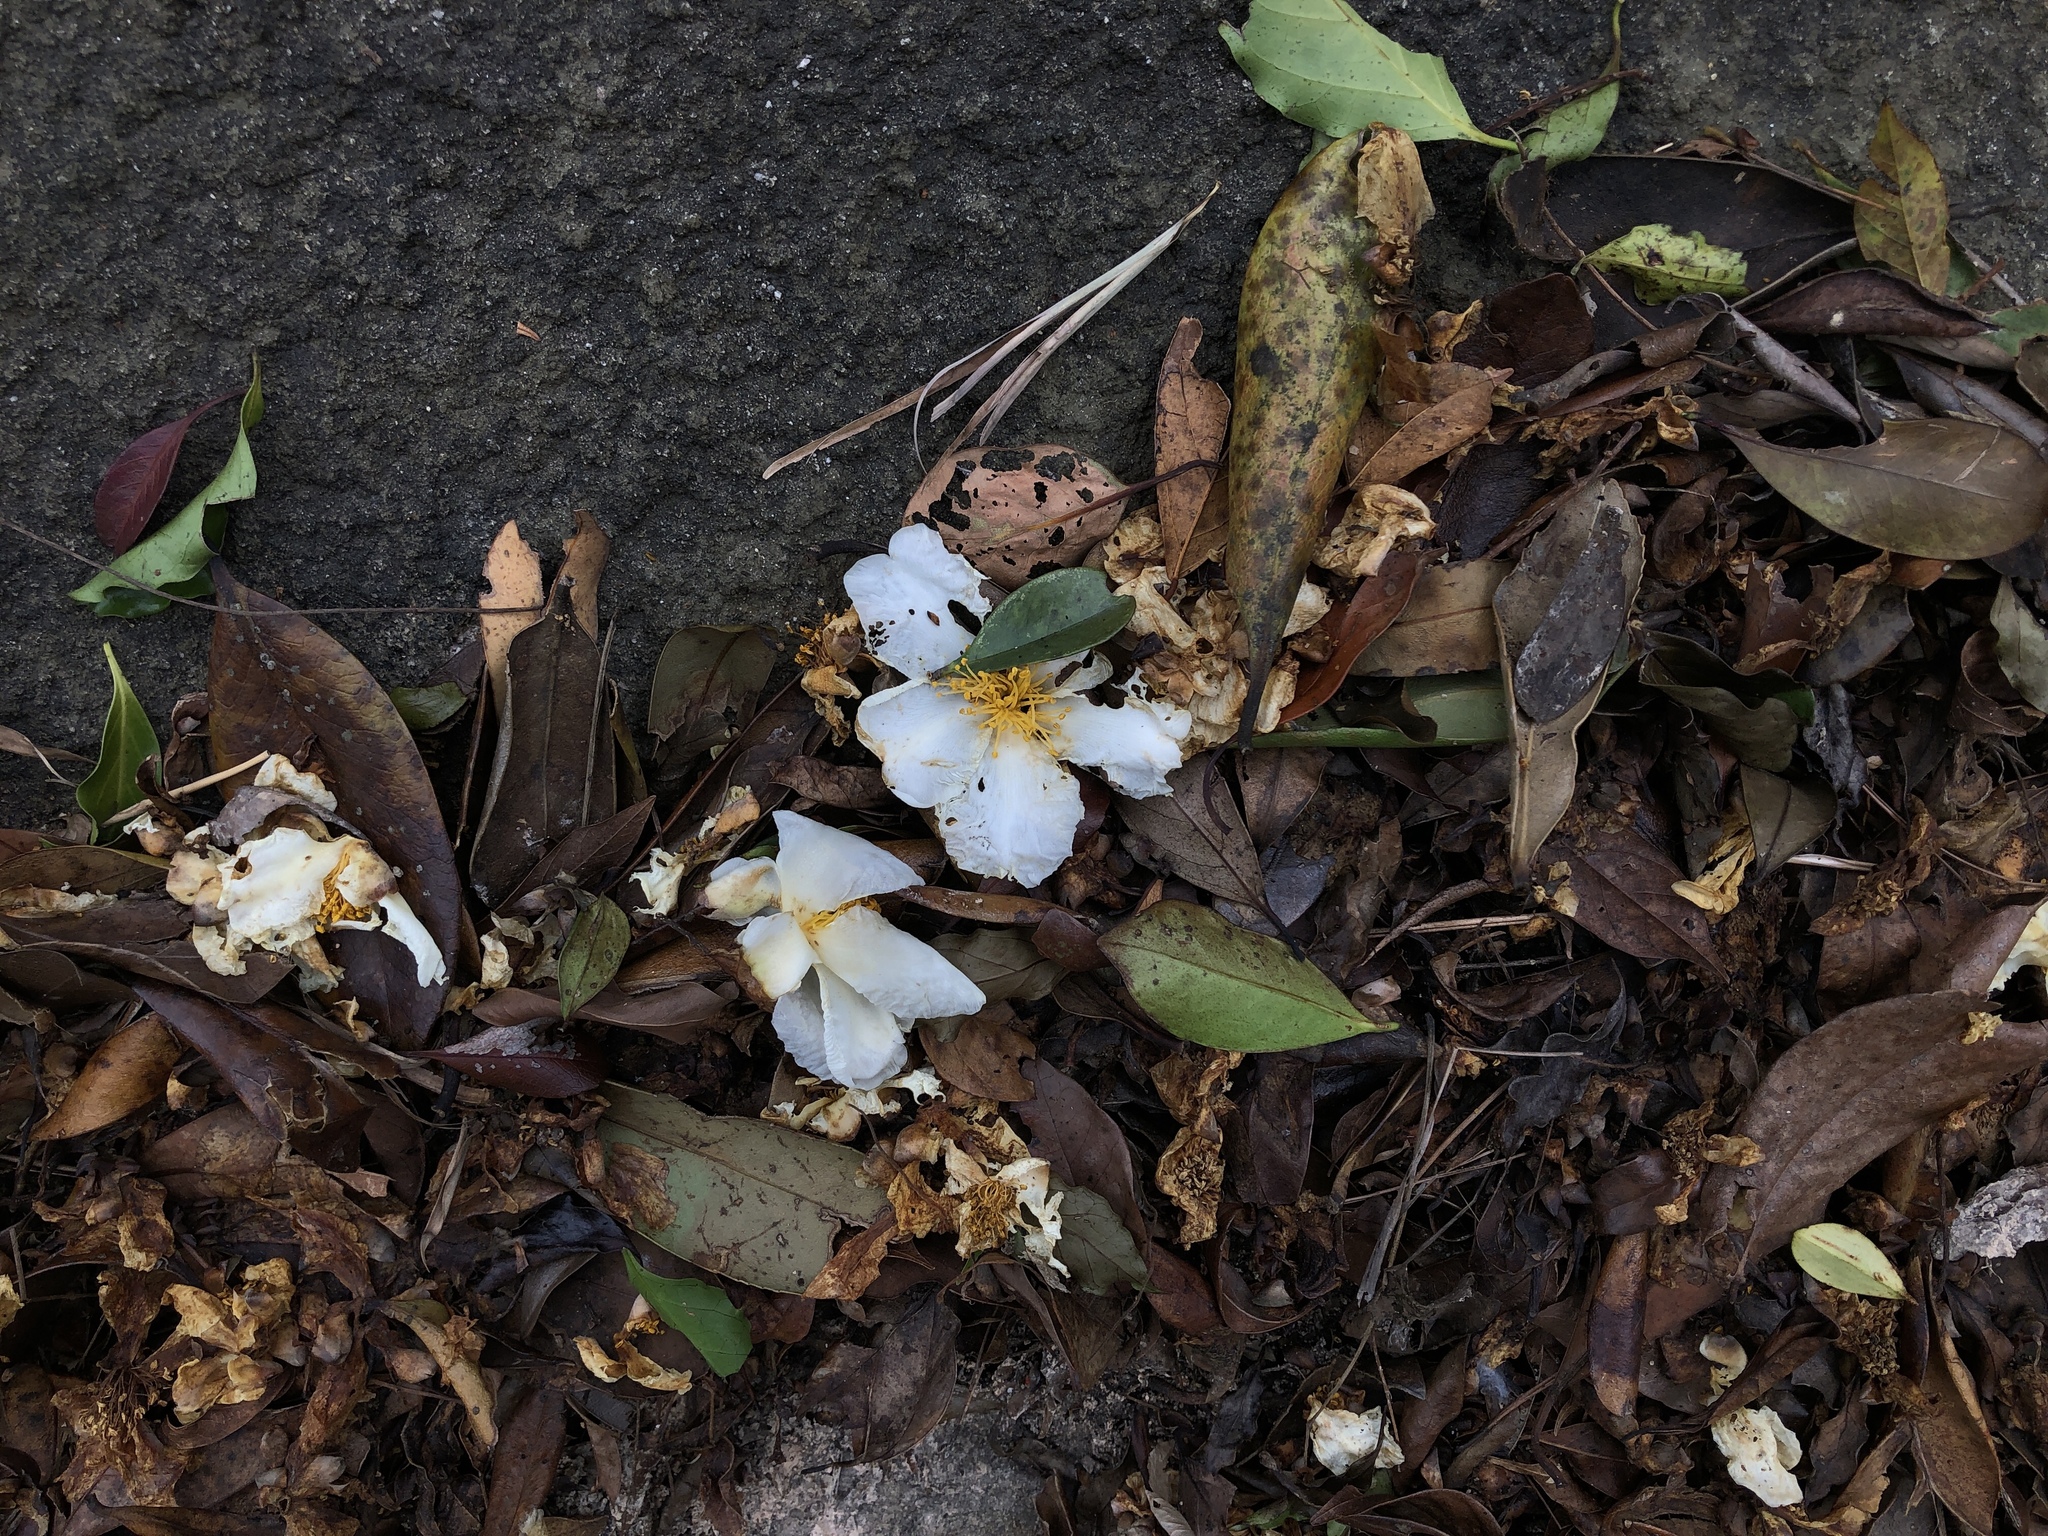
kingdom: Plantae
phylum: Tracheophyta
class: Magnoliopsida
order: Ericales
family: Theaceae
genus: Polyspora
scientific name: Polyspora axillaris
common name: Fried egg tree
